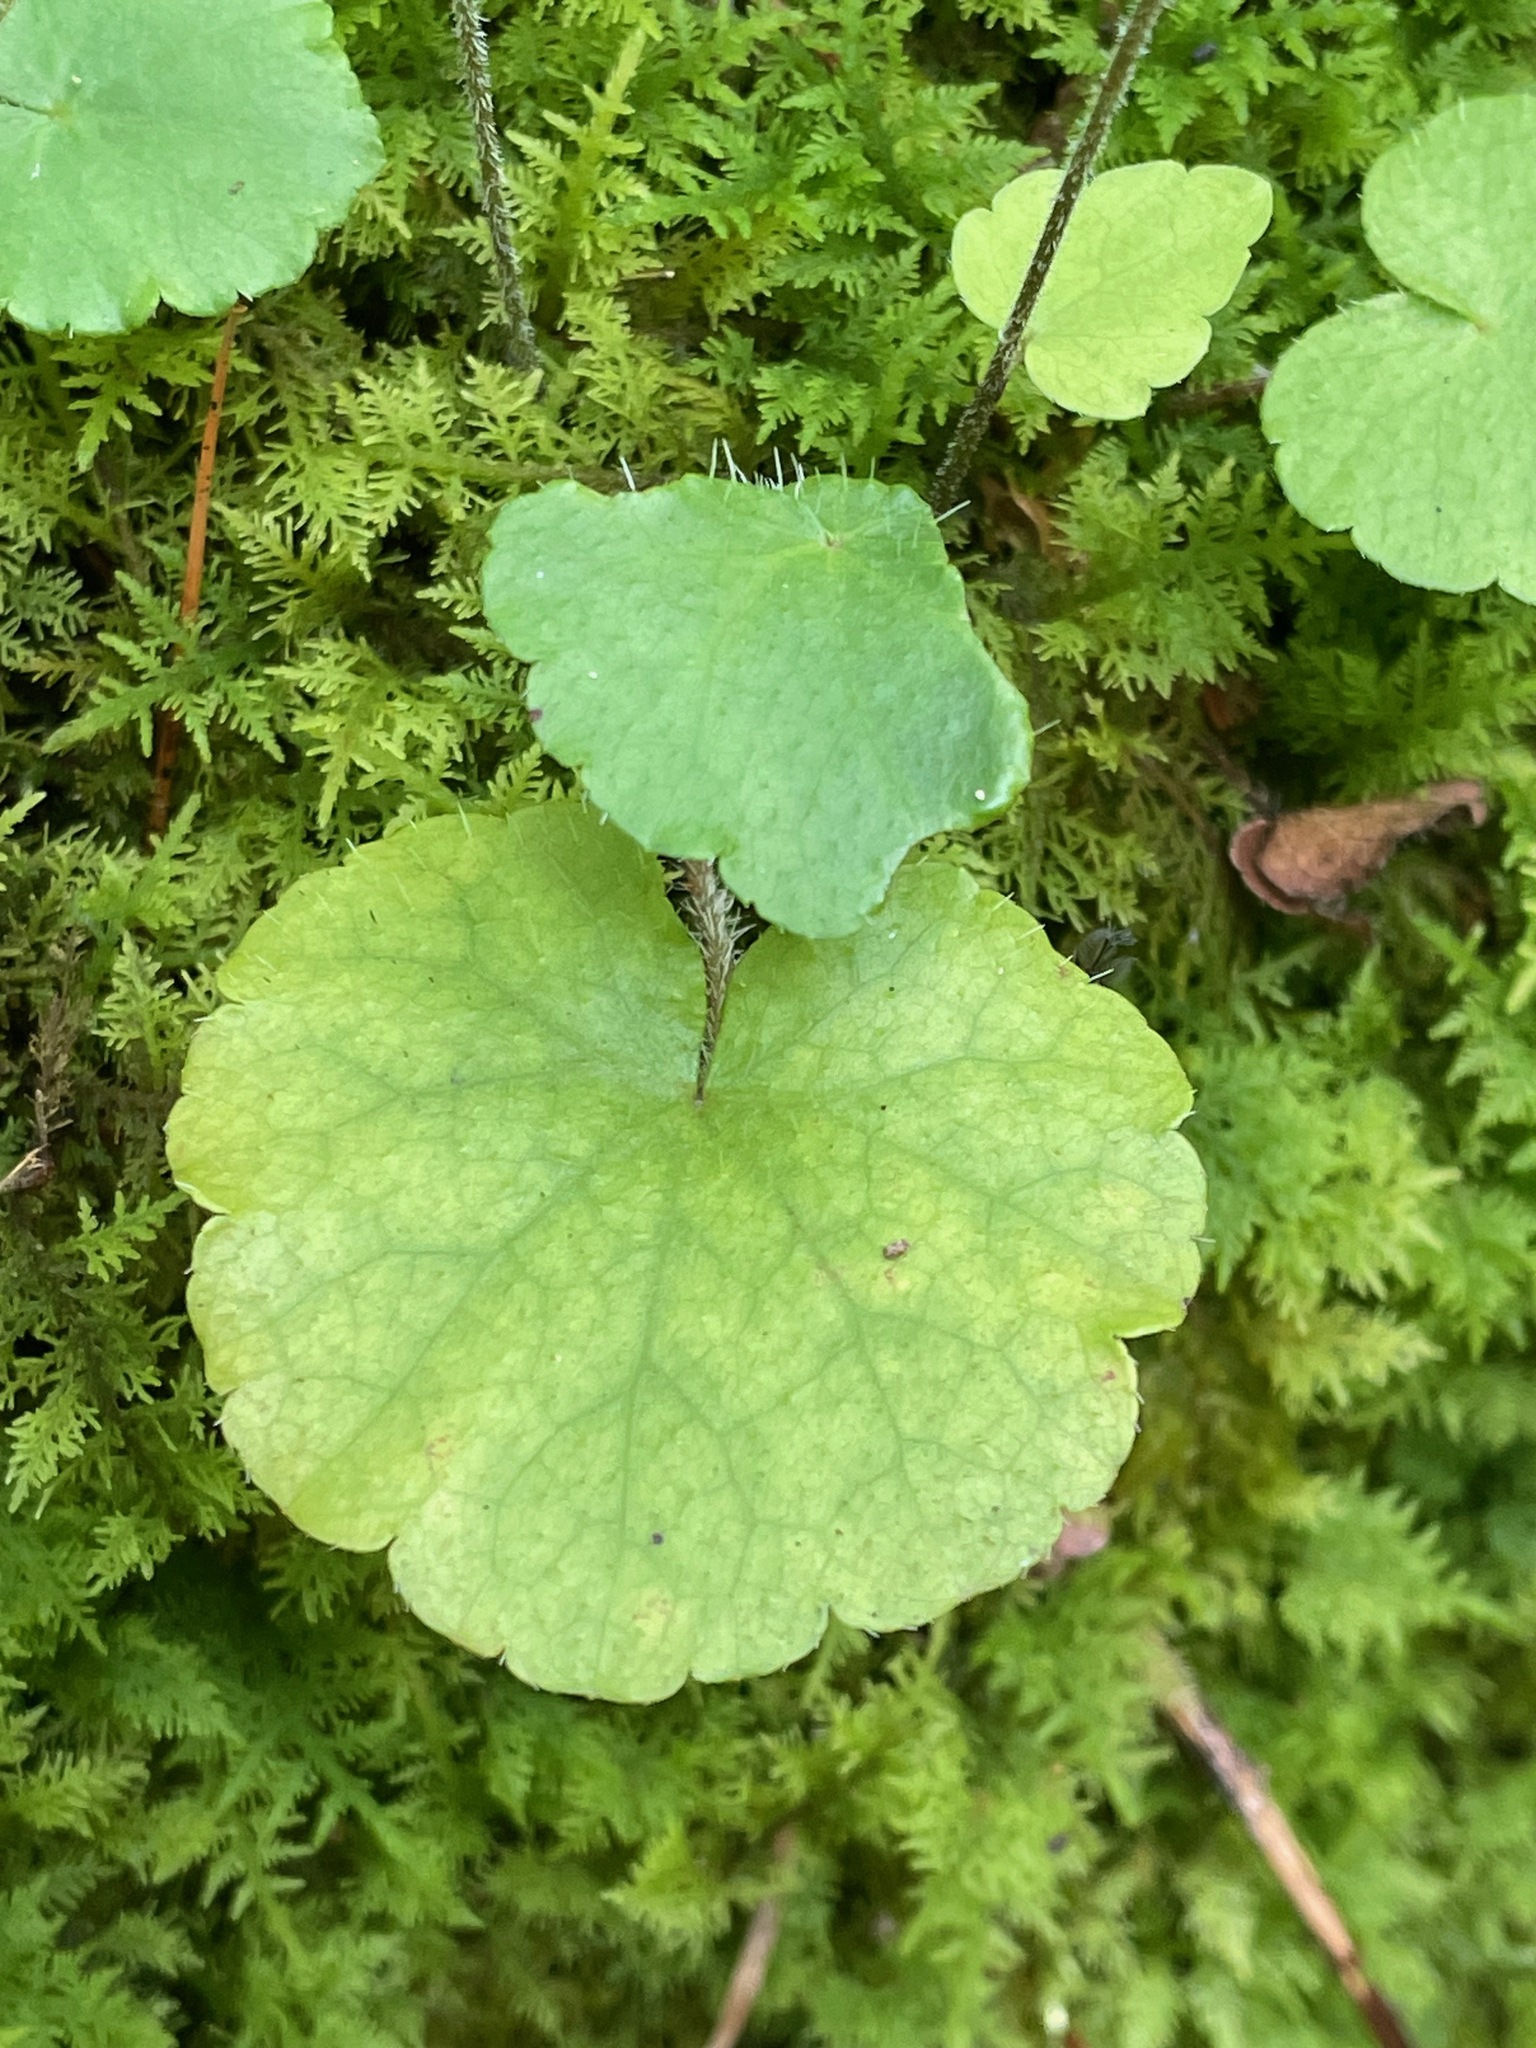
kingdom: Plantae
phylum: Tracheophyta
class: Magnoliopsida
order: Saxifragales
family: Saxifragaceae
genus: Mitella
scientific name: Mitella nuda
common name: Bare-stemmed bishop's-cap
